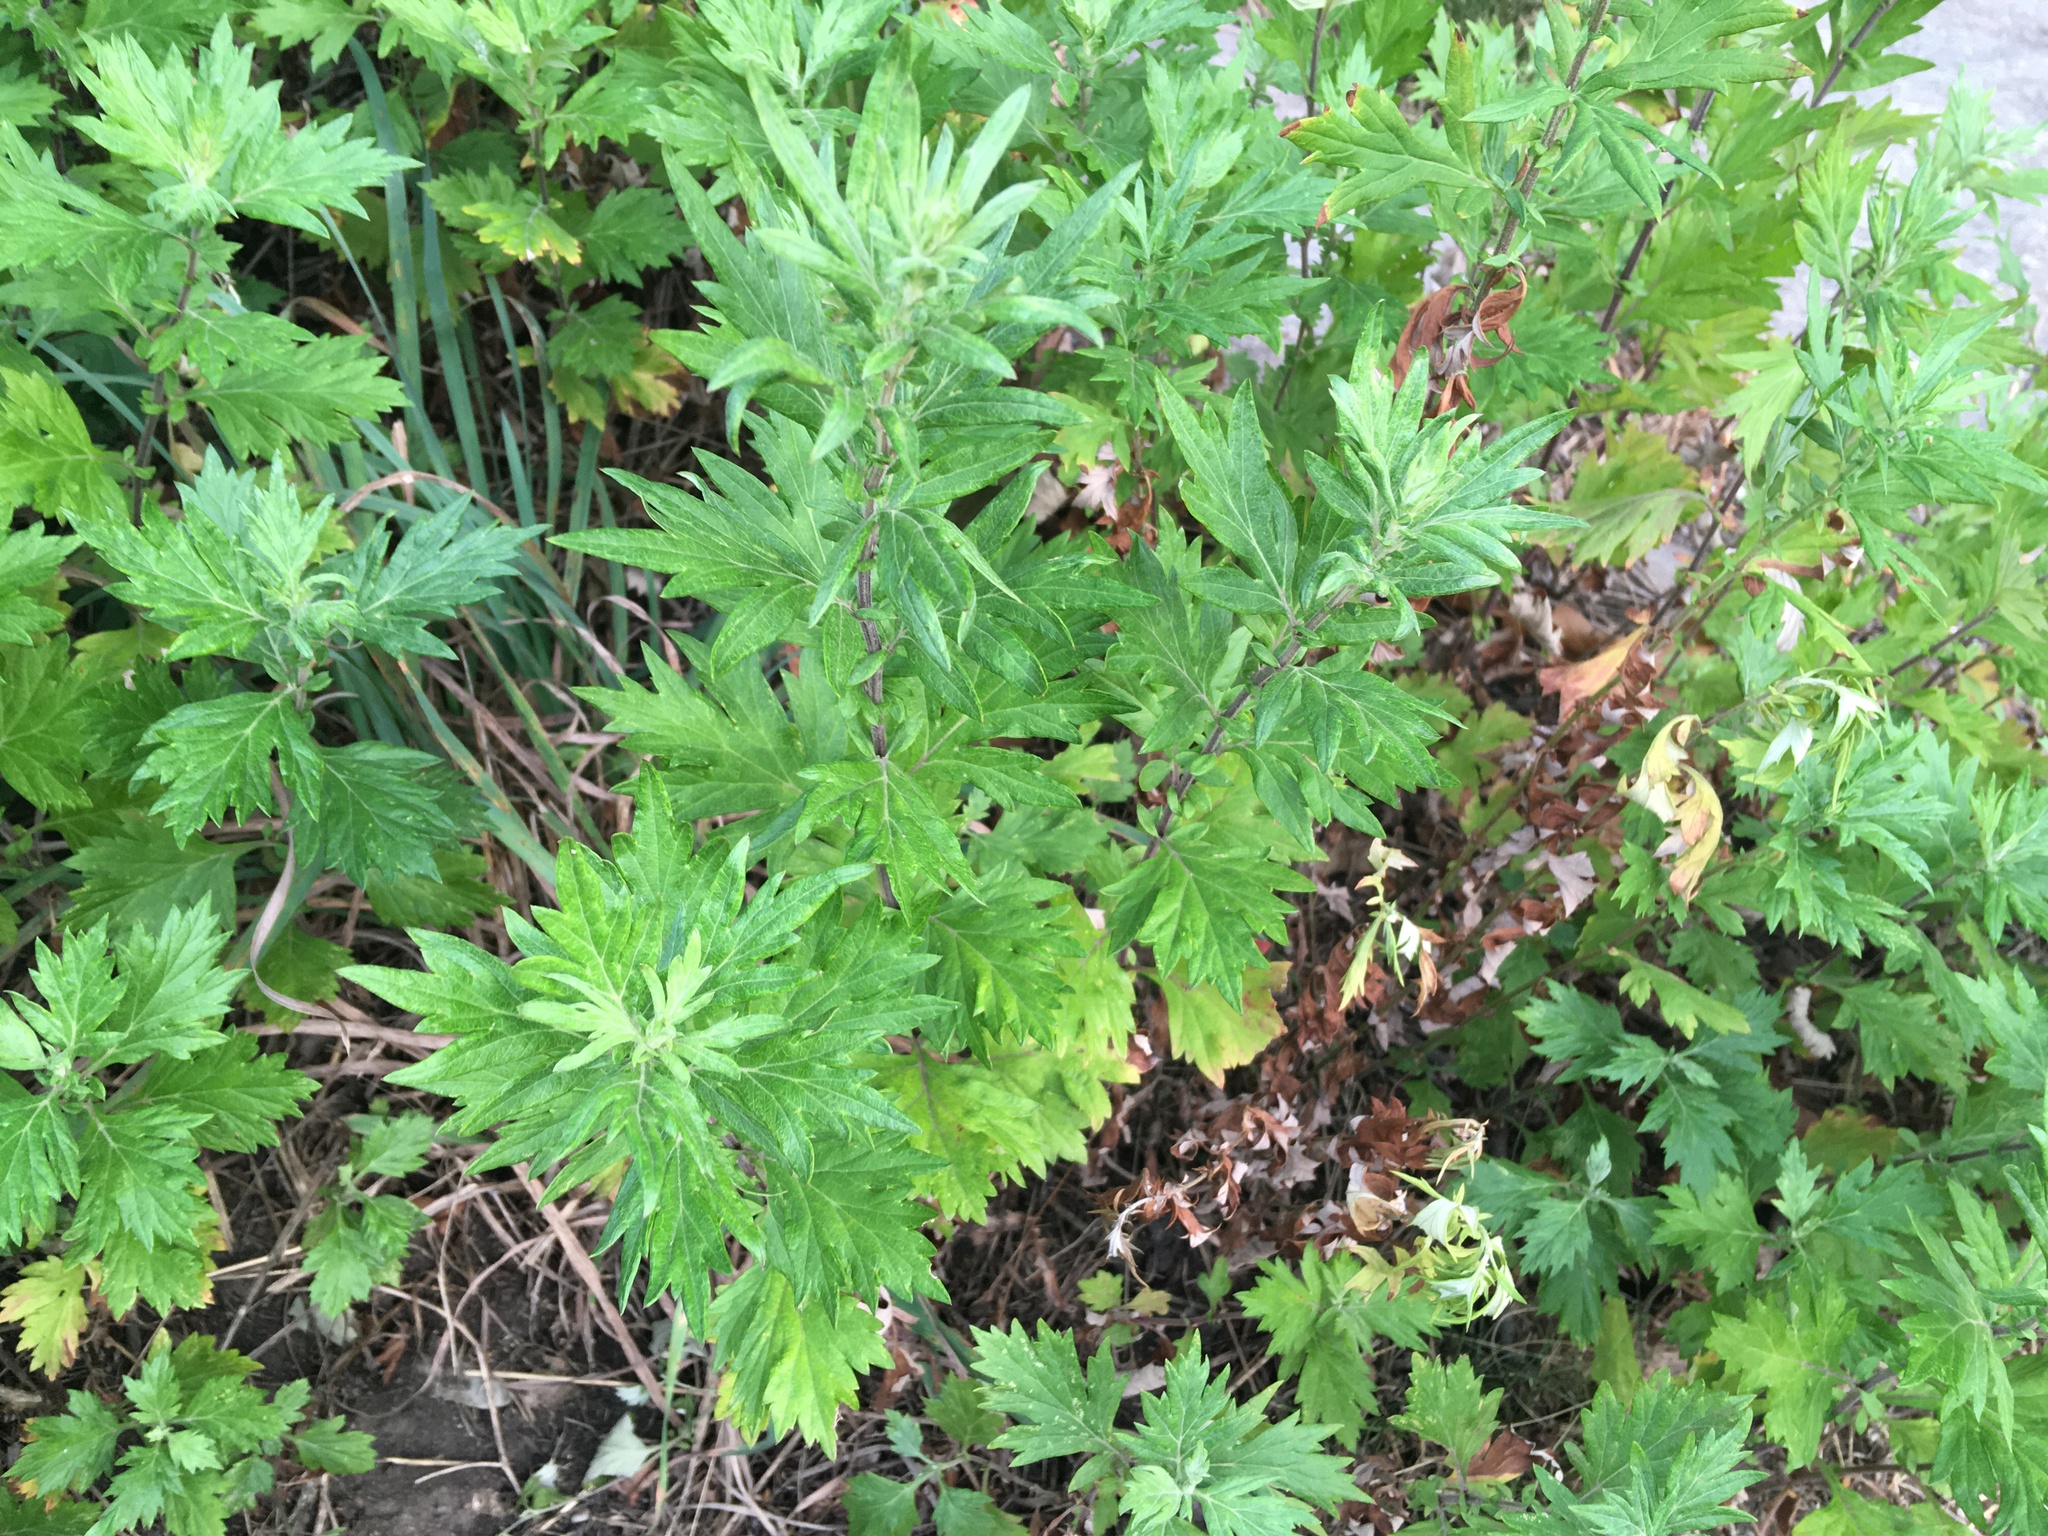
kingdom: Plantae
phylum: Tracheophyta
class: Magnoliopsida
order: Asterales
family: Asteraceae
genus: Artemisia
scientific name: Artemisia vulgaris
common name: Mugwort
